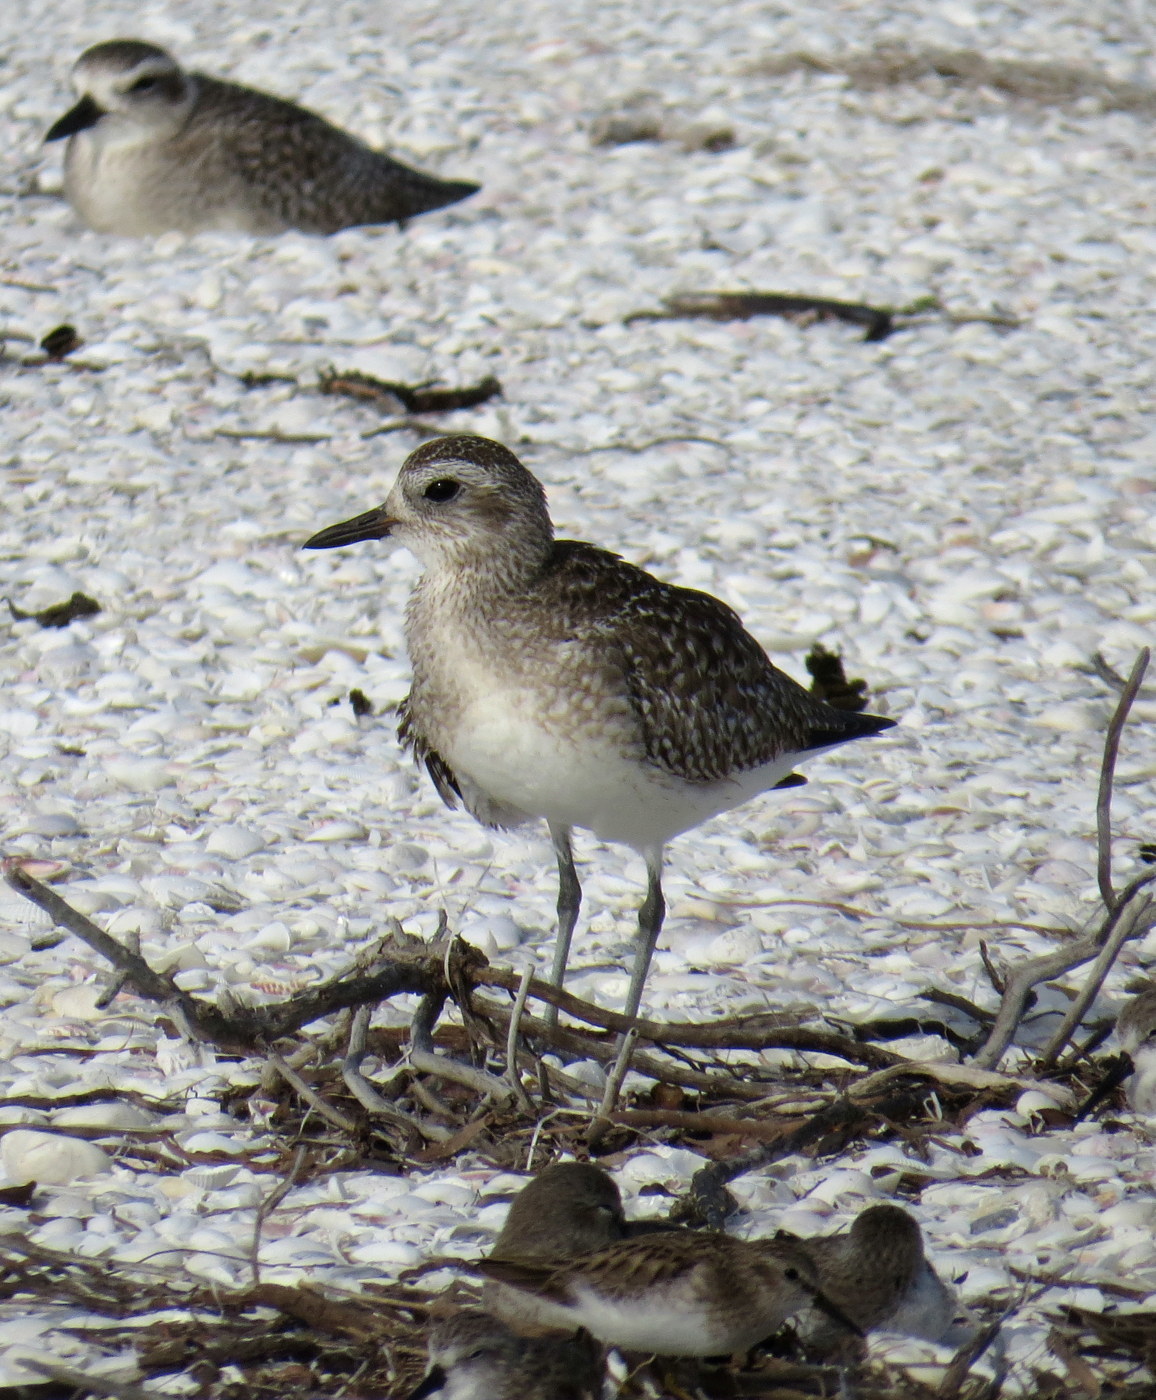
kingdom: Animalia
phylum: Chordata
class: Aves
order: Charadriiformes
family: Charadriidae
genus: Pluvialis
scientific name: Pluvialis squatarola
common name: Grey plover
